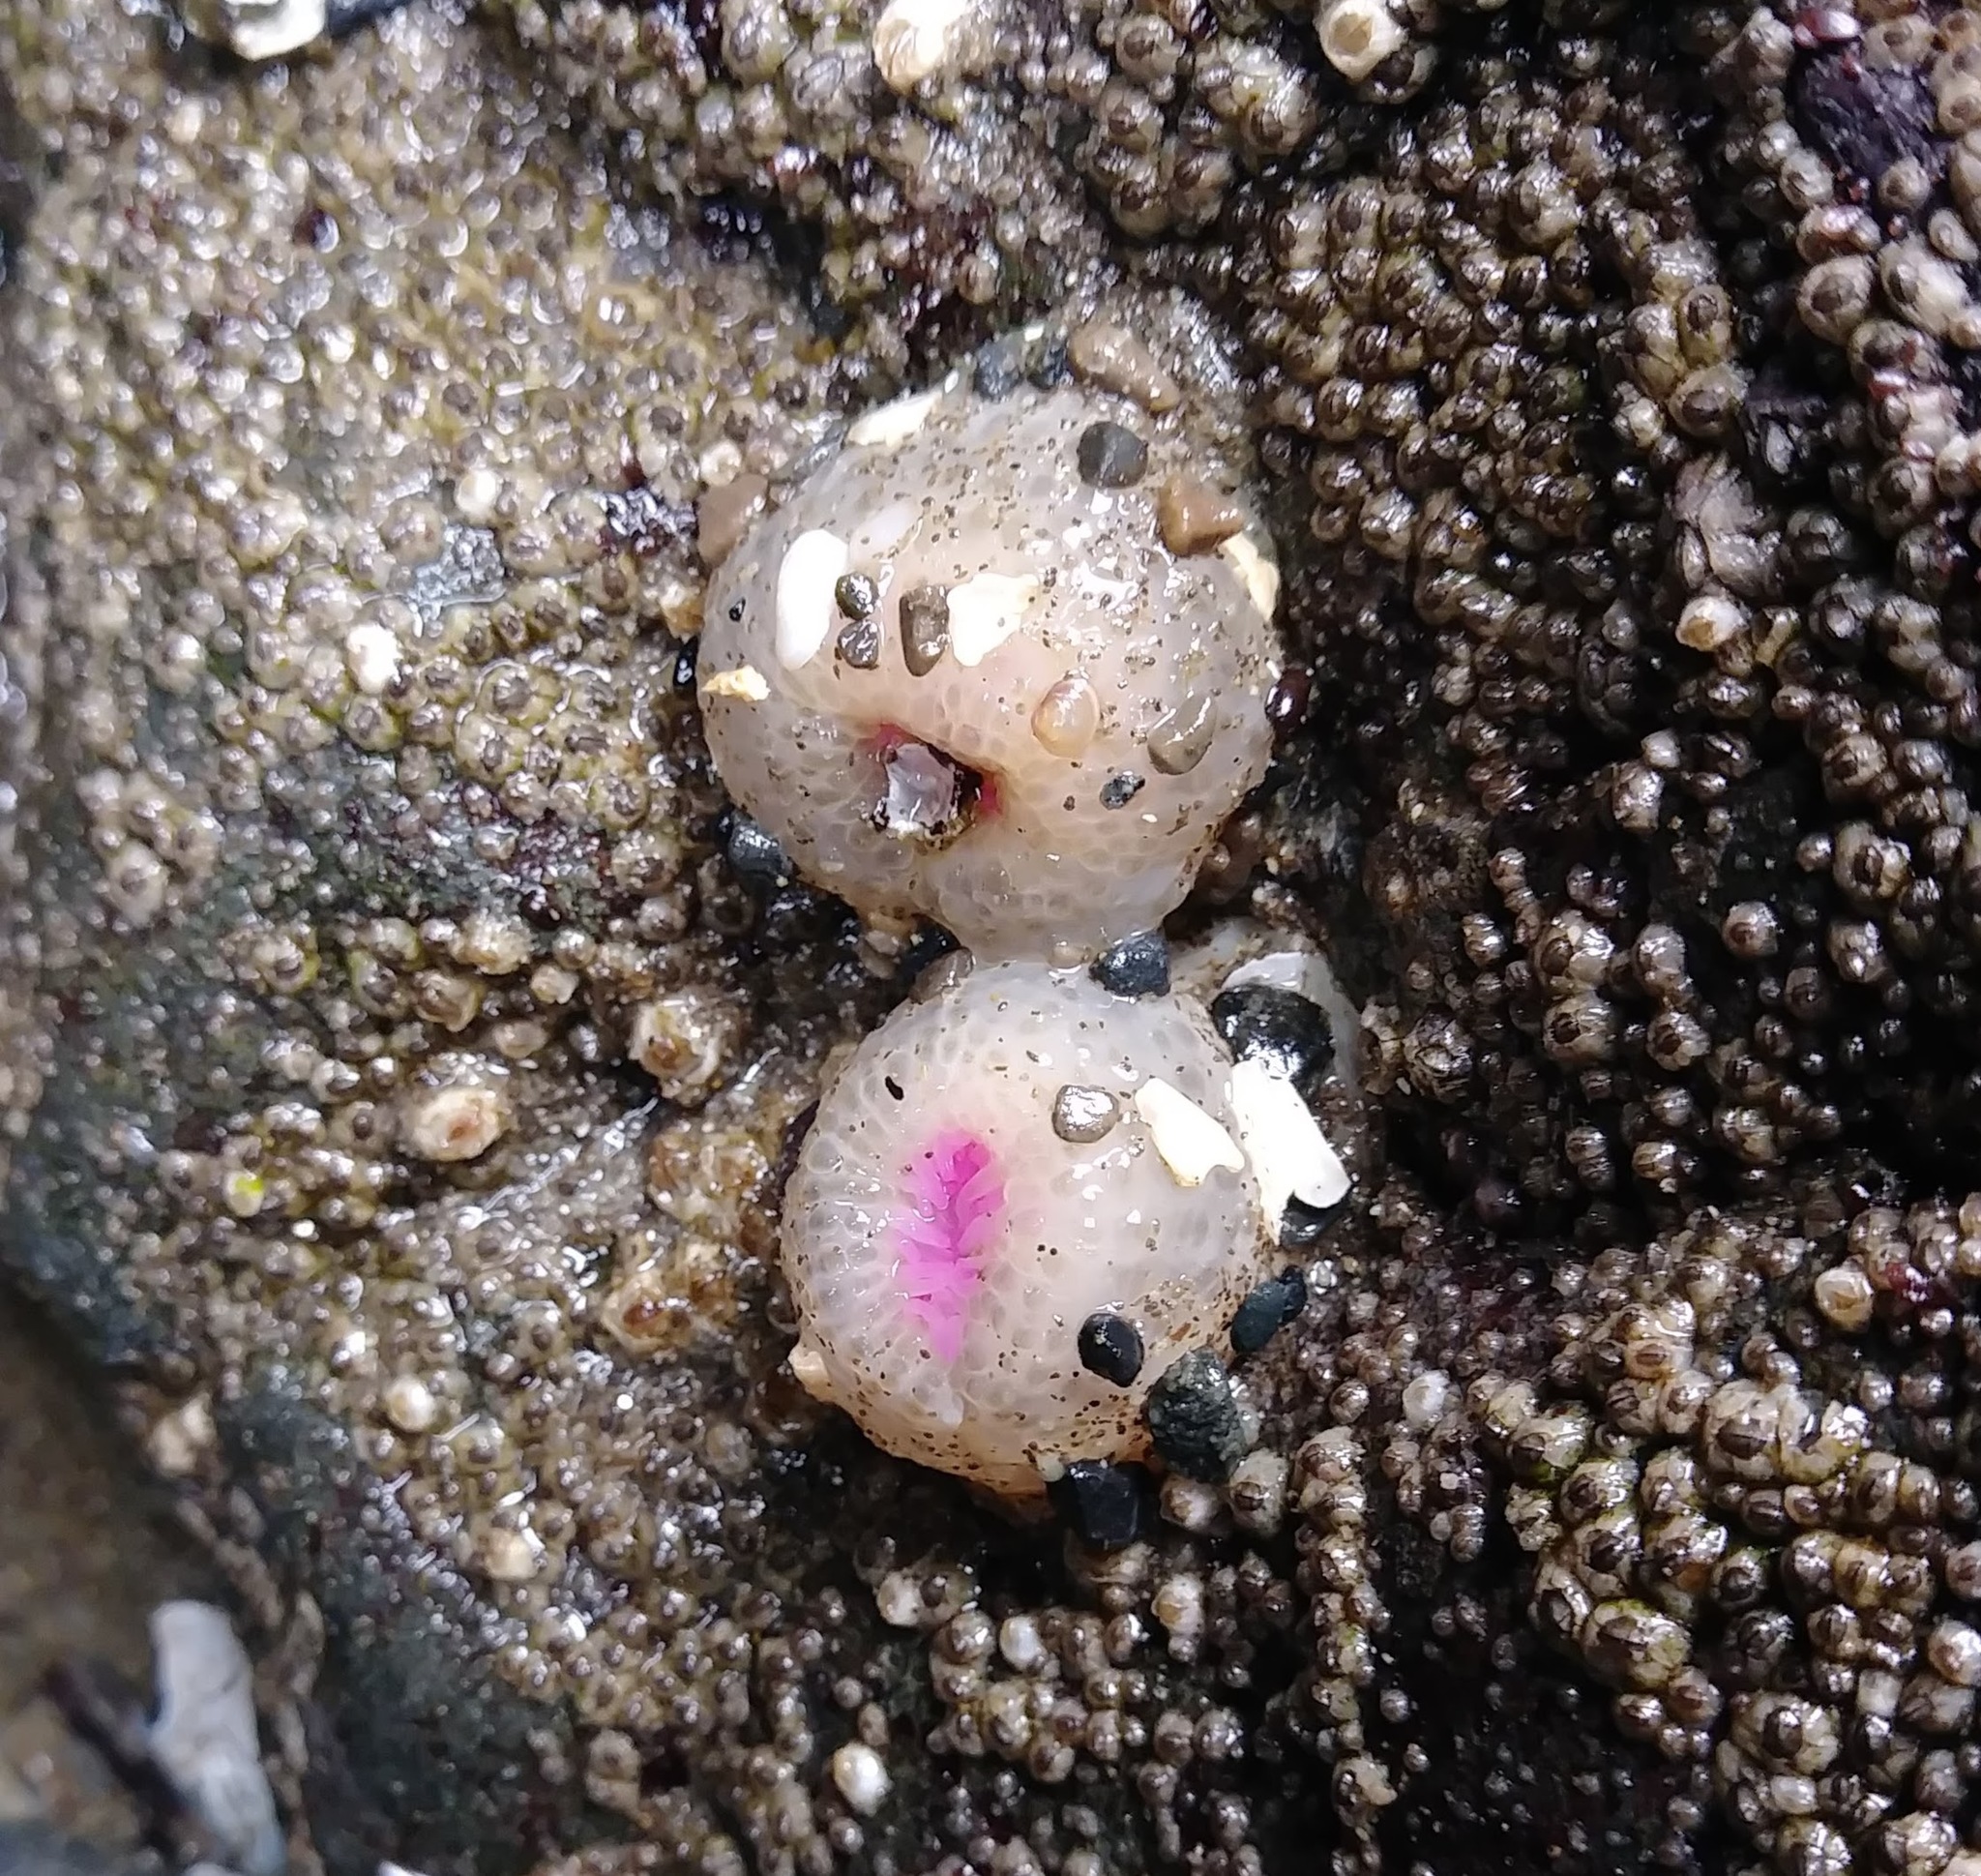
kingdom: Animalia
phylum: Cnidaria
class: Anthozoa
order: Actiniaria
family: Actiniidae
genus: Anthopleura
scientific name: Anthopleura elegantissima
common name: Clonal anemone
